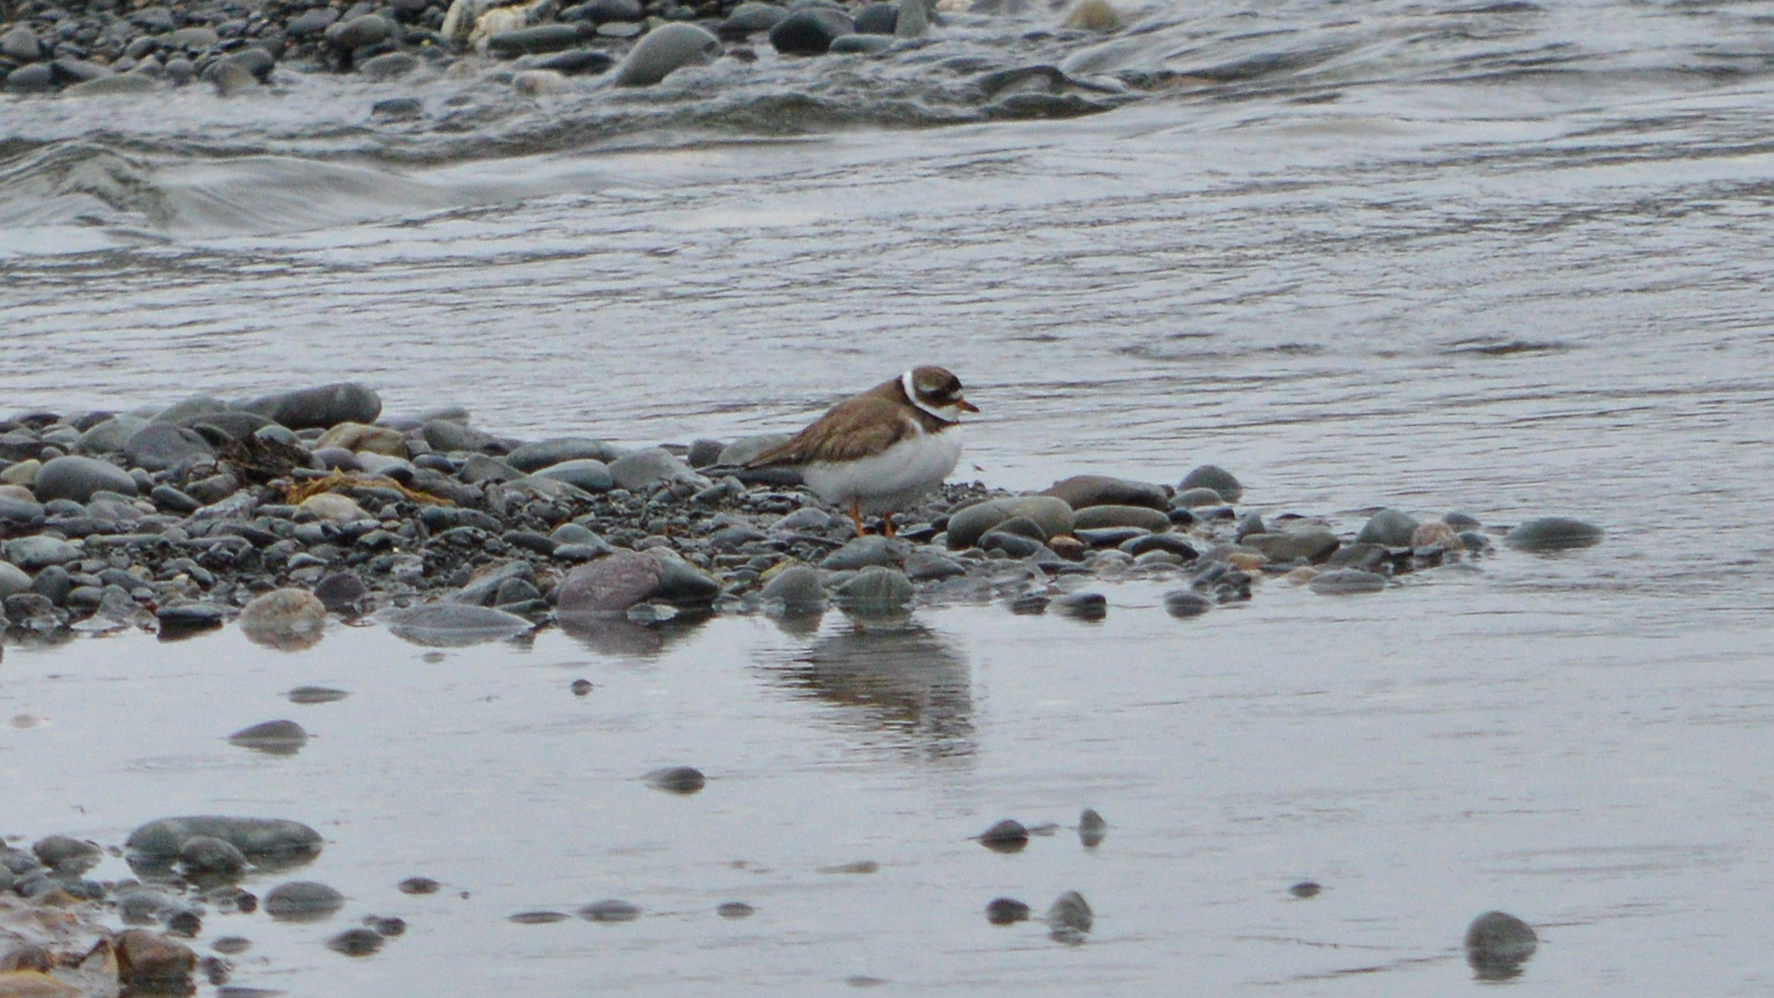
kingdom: Animalia
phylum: Chordata
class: Aves
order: Charadriiformes
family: Charadriidae
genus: Charadrius
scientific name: Charadrius semipalmatus
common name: Semipalmated plover
